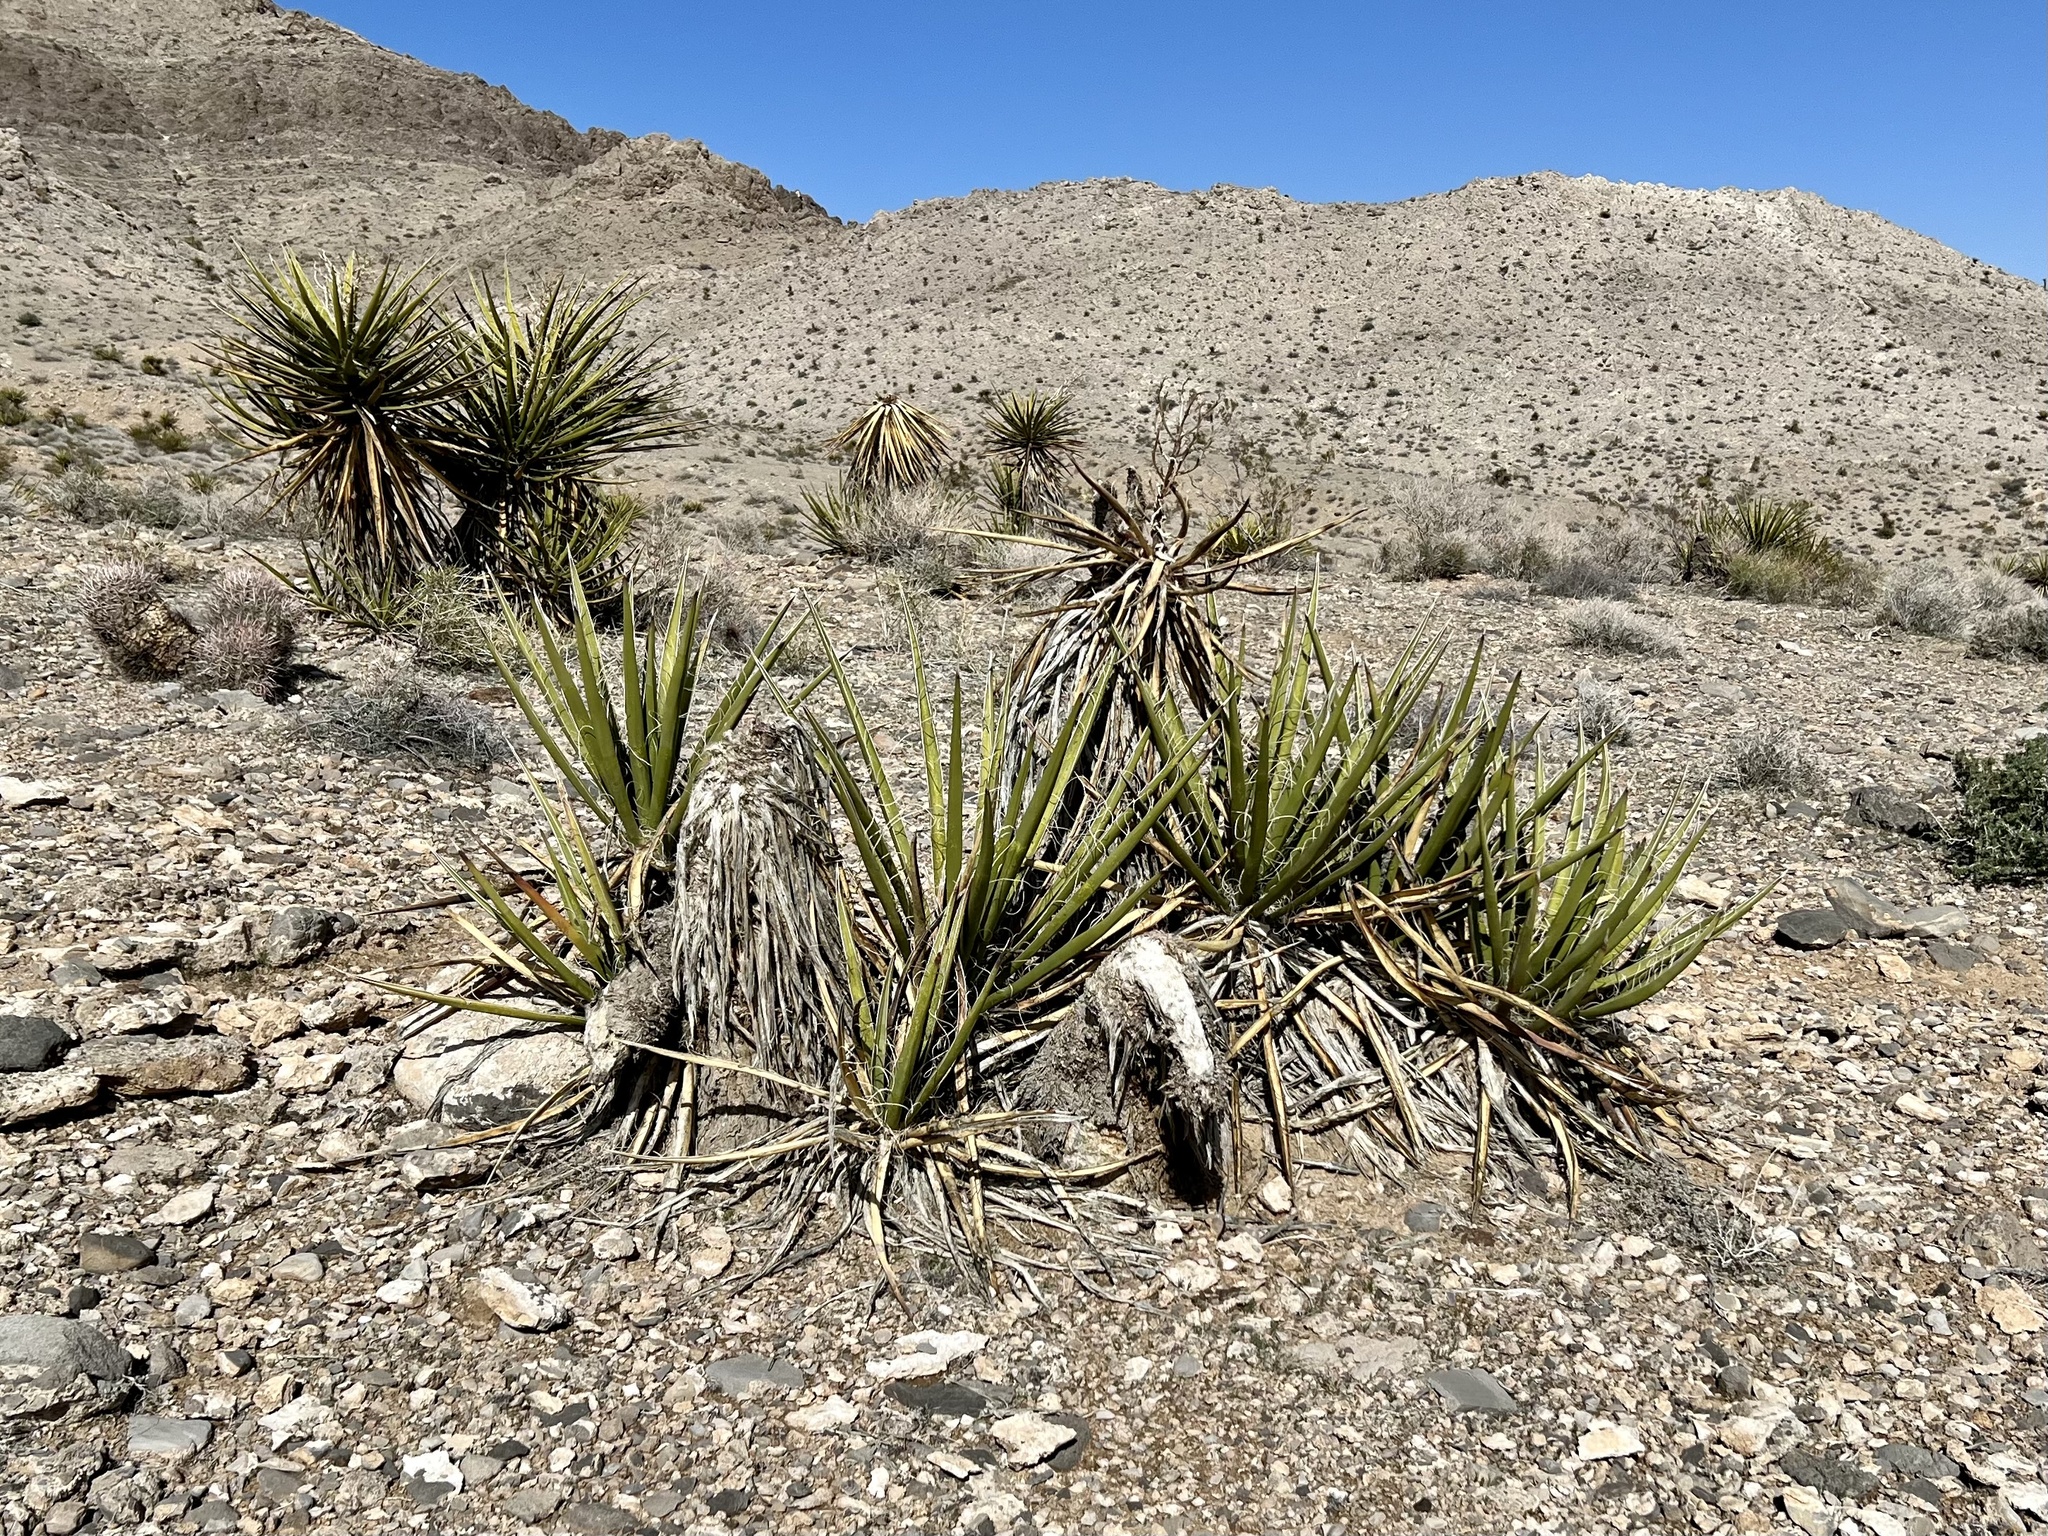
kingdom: Plantae
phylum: Tracheophyta
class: Liliopsida
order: Asparagales
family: Asparagaceae
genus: Yucca
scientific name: Yucca schidigera
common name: Mojave yucca
